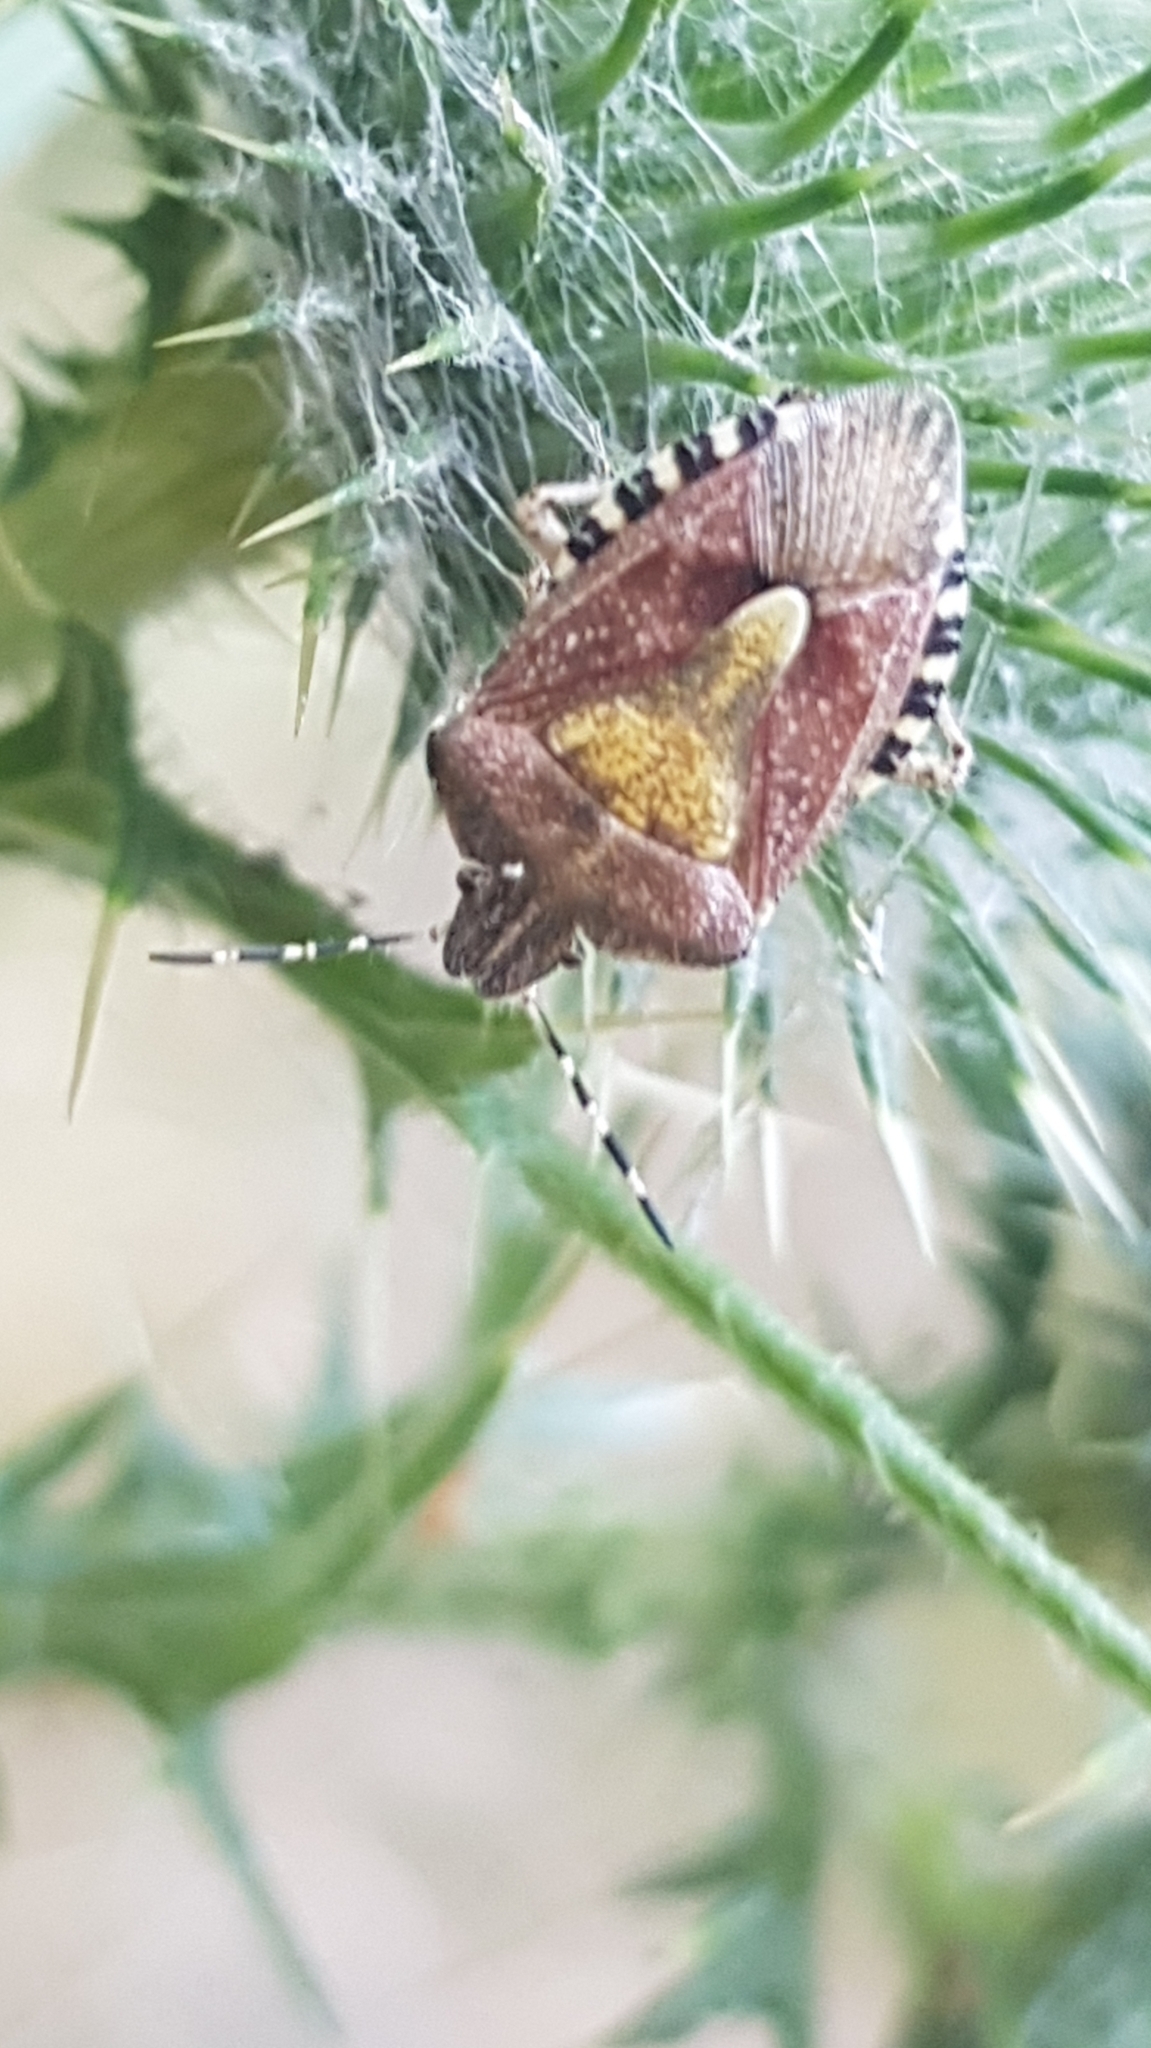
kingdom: Animalia
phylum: Arthropoda
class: Insecta
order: Hemiptera
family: Pentatomidae
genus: Dolycoris
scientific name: Dolycoris baccarum
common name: Sloe bug
